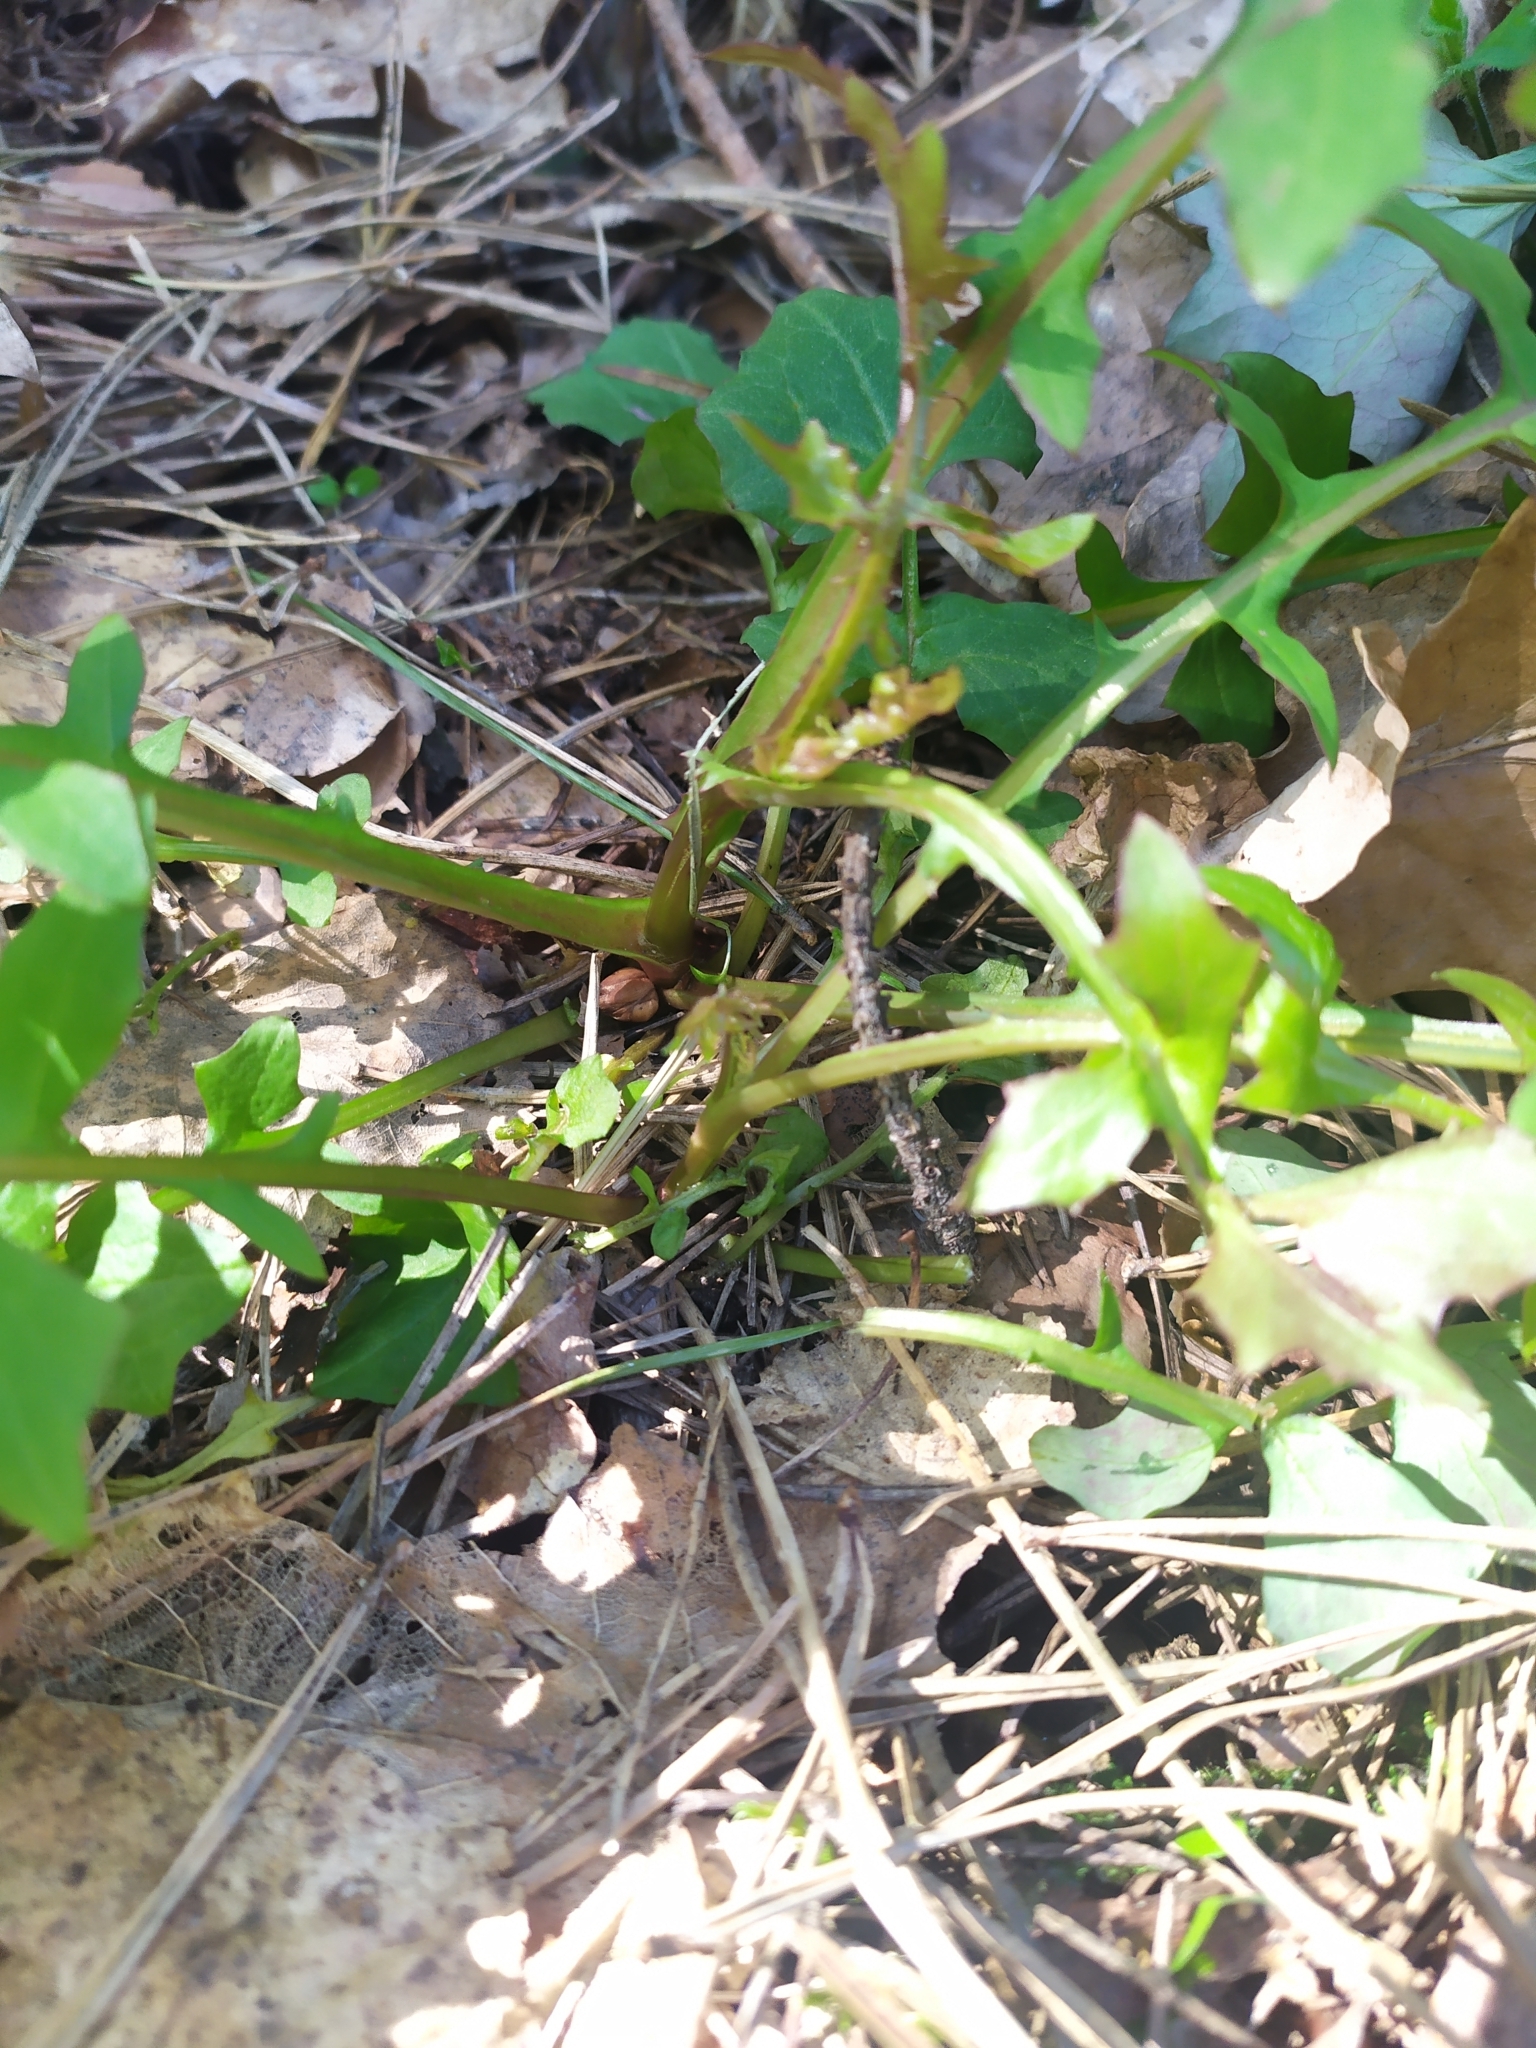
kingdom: Plantae
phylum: Tracheophyta
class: Magnoliopsida
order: Asterales
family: Asteraceae
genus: Mycelis
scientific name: Mycelis muralis
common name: Wall lettuce
